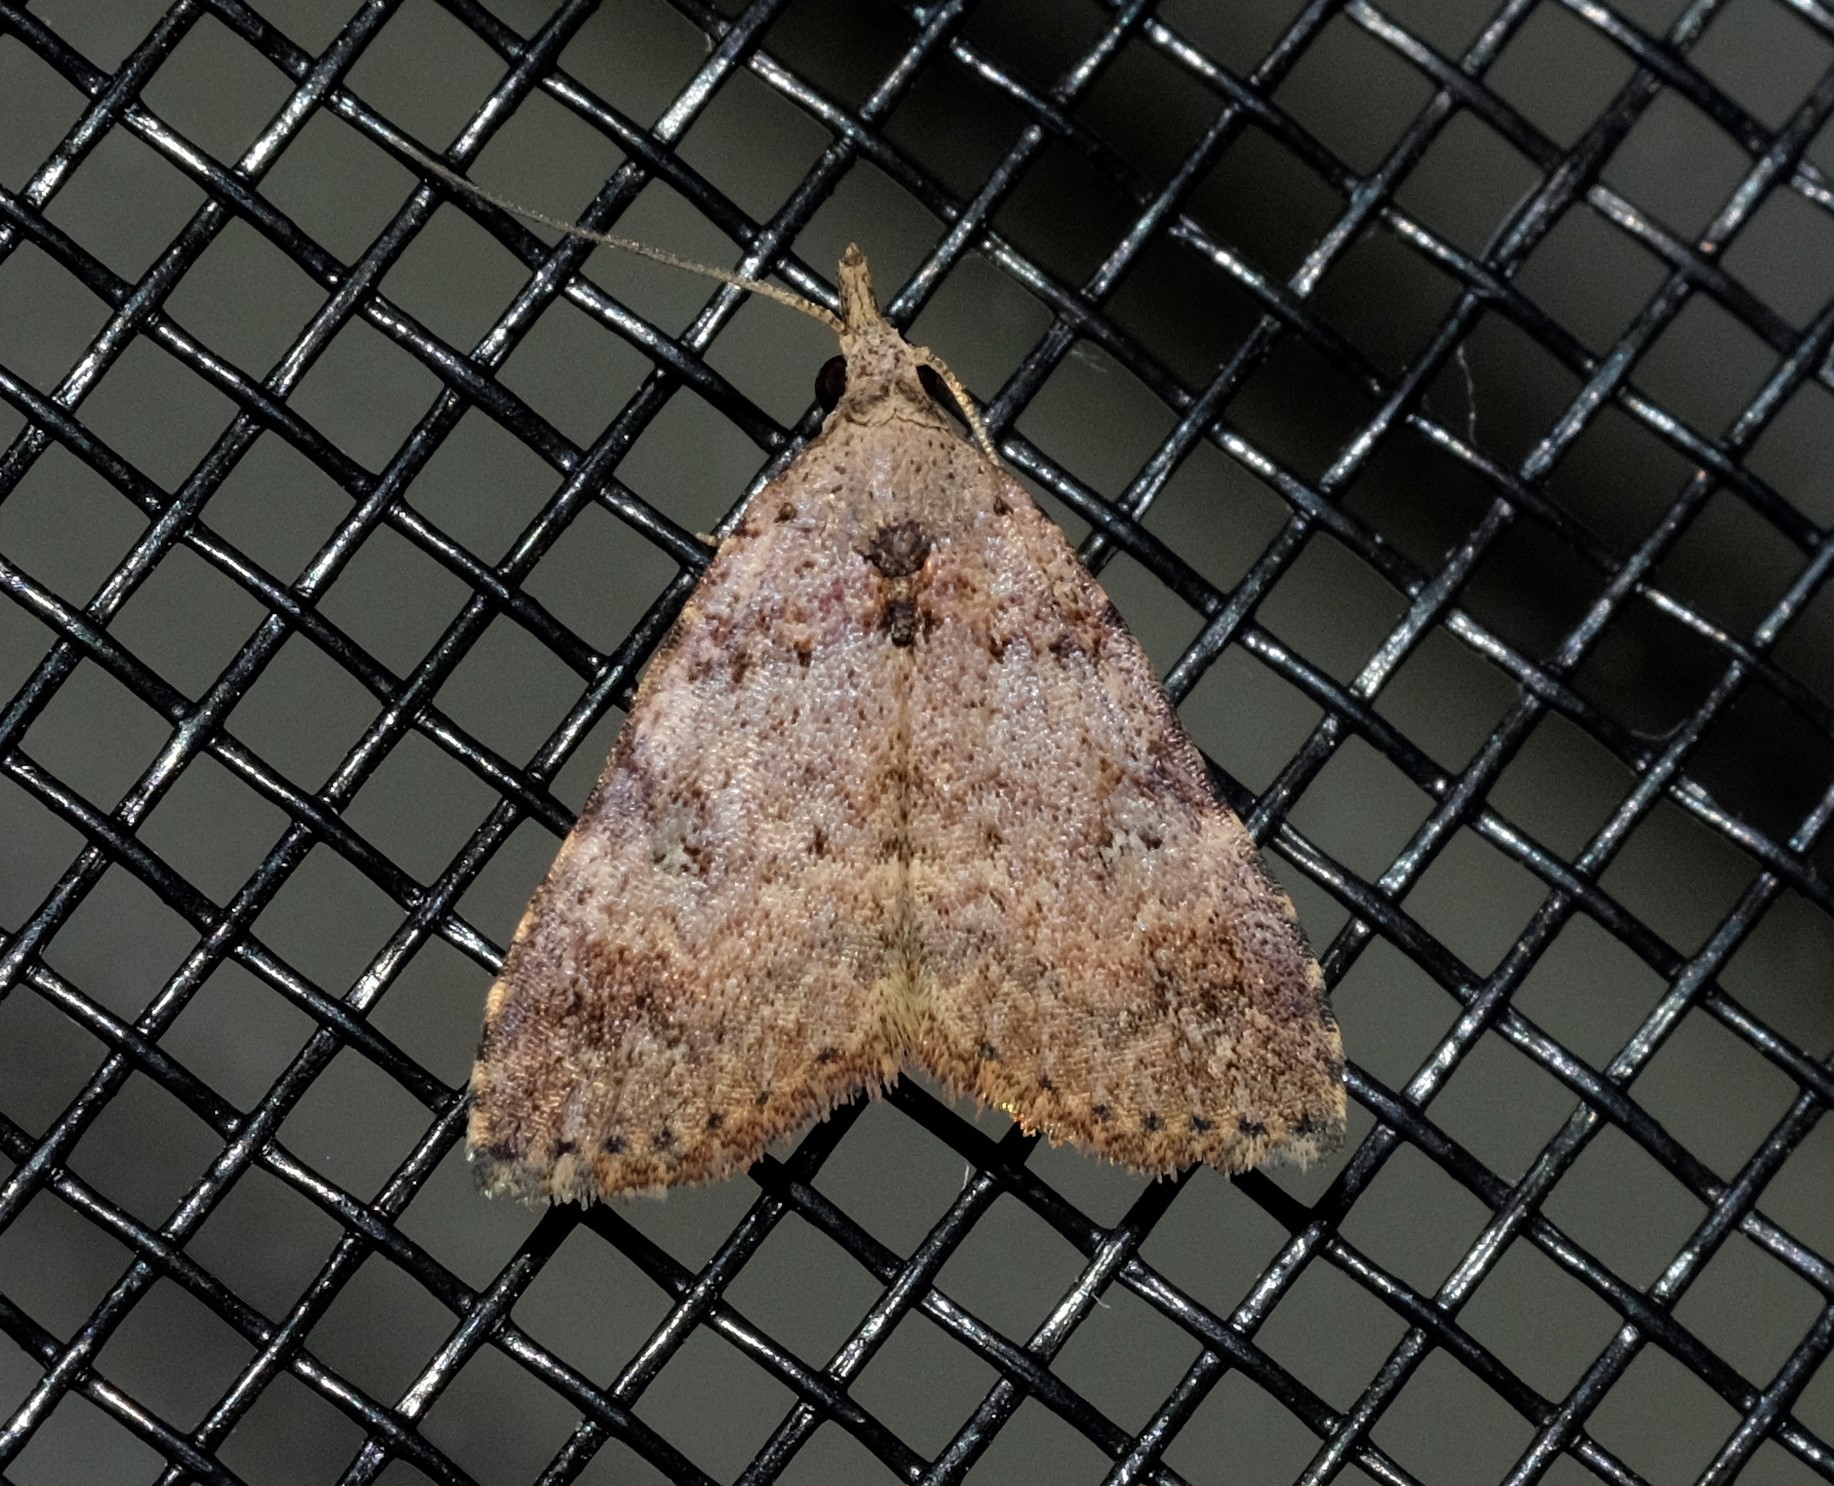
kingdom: Animalia
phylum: Arthropoda
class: Insecta
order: Lepidoptera
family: Erebidae
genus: Alapadna
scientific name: Alapadna pauropis
